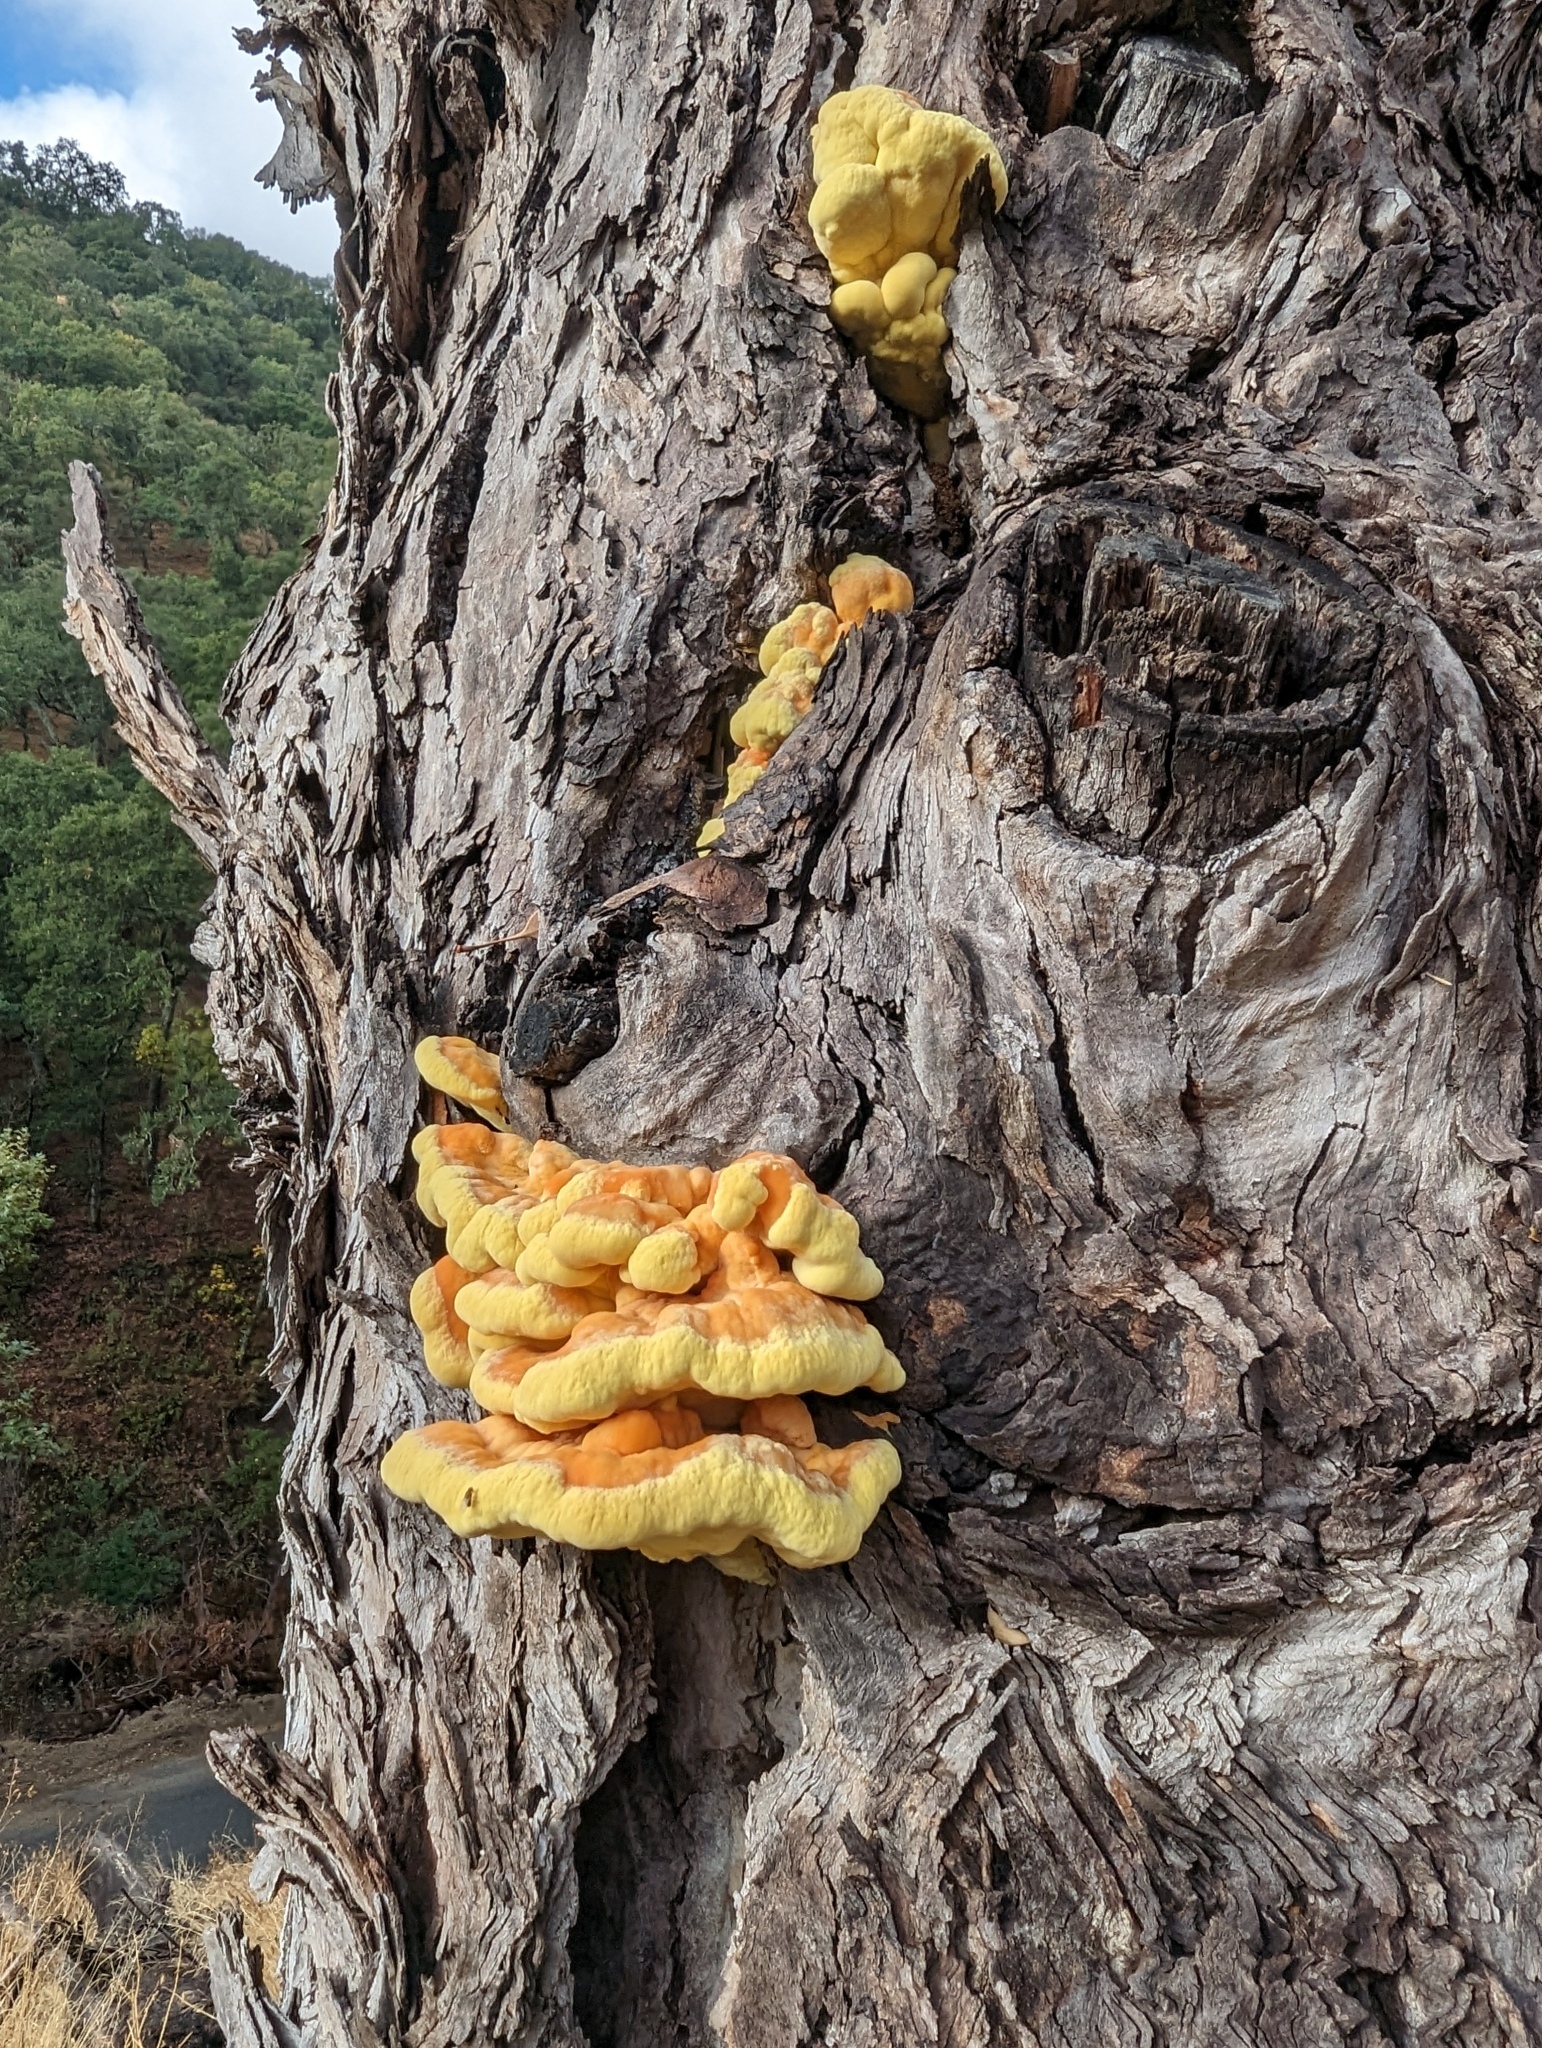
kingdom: Fungi
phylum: Basidiomycota
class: Agaricomycetes
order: Polyporales
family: Laetiporaceae
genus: Laetiporus
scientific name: Laetiporus gilbertsonii
